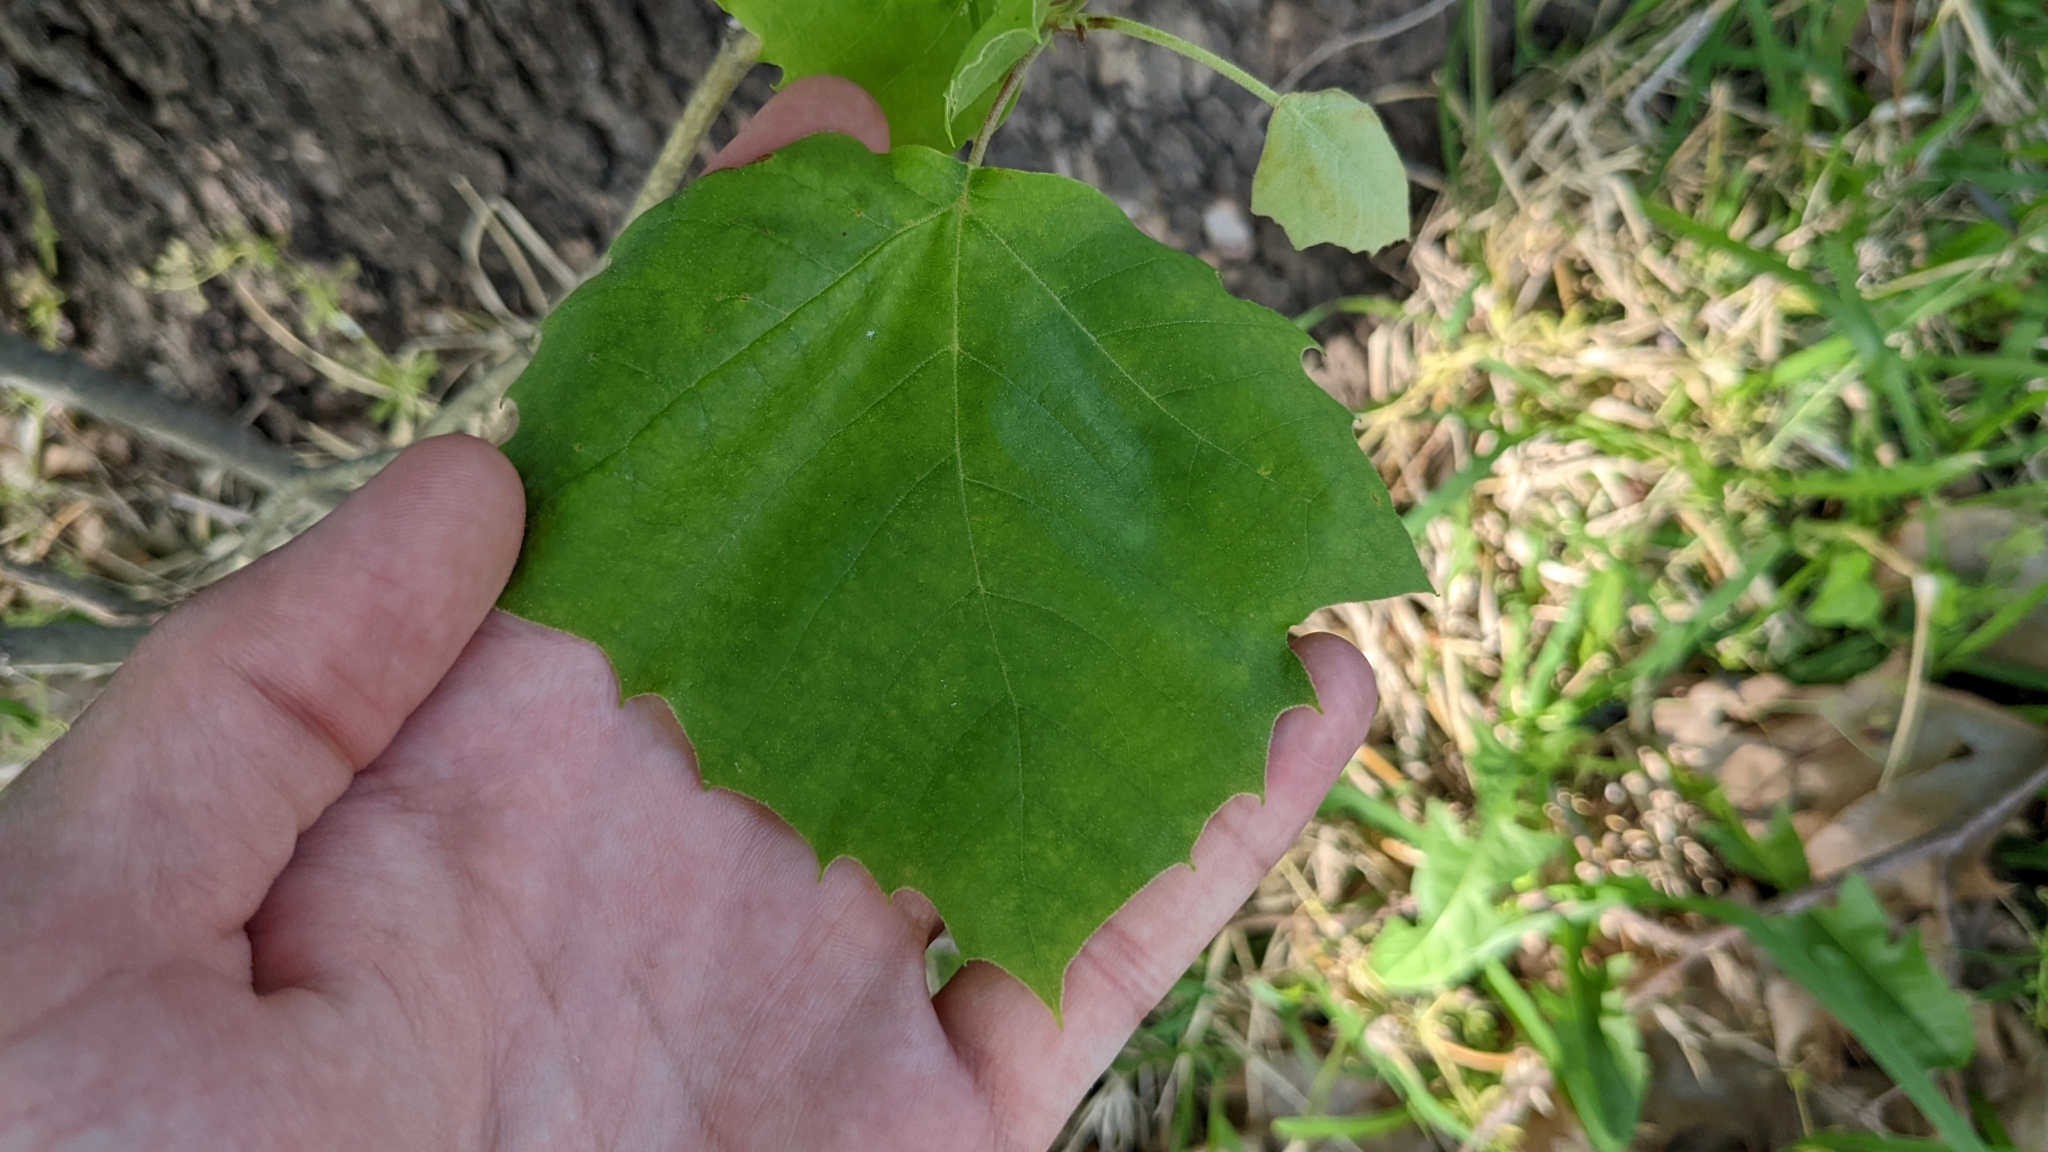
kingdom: Plantae
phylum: Tracheophyta
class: Magnoliopsida
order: Proteales
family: Platanaceae
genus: Platanus
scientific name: Platanus occidentalis
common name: American sycamore
